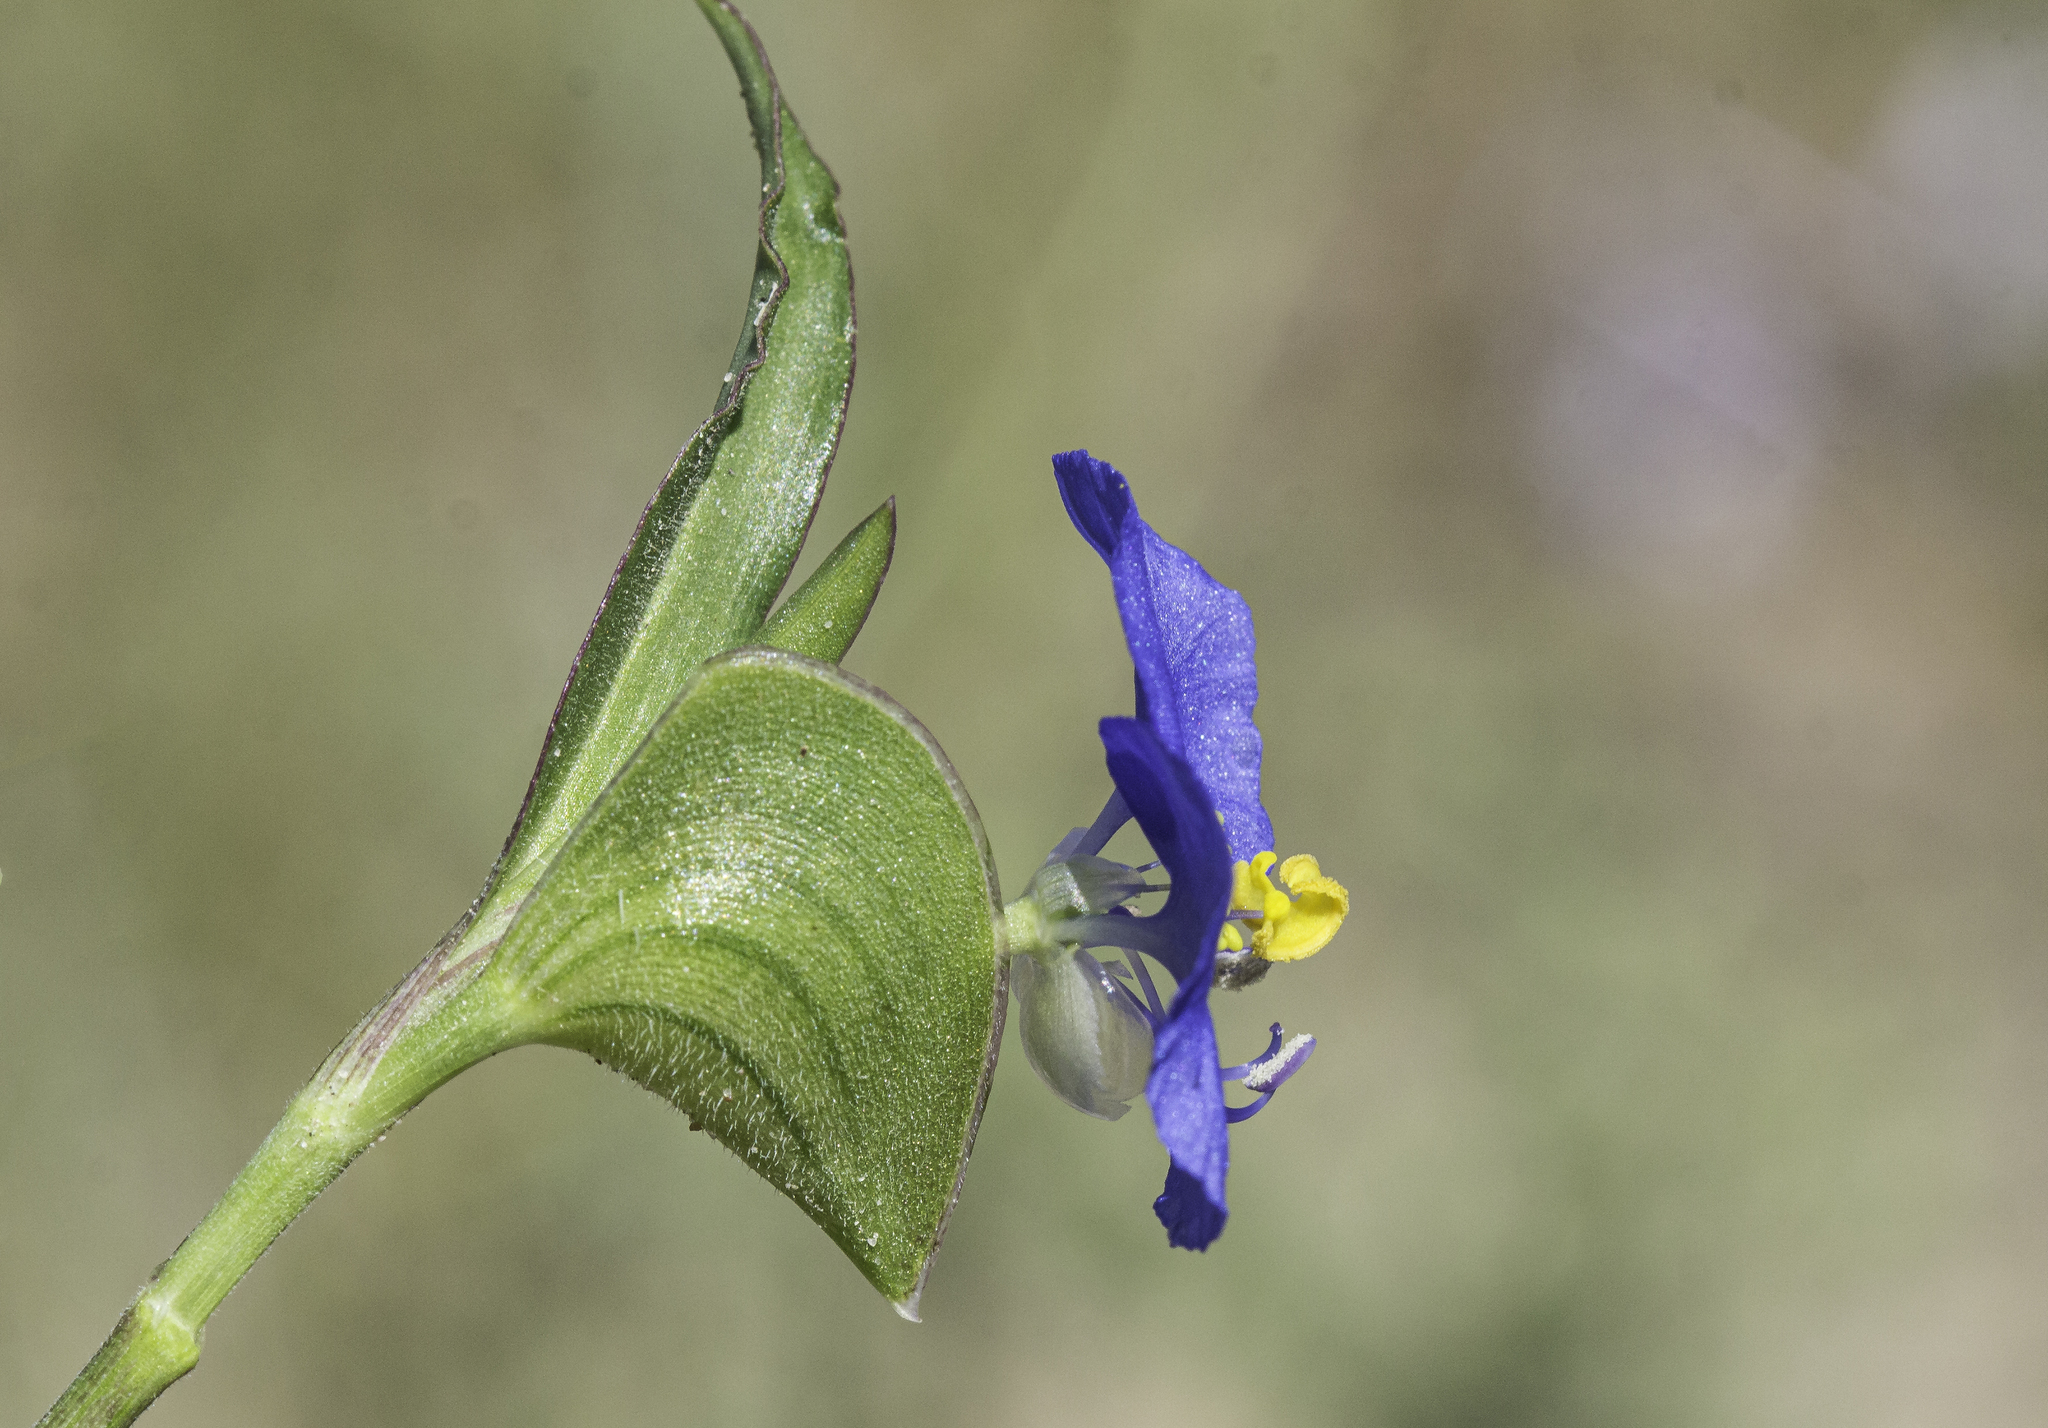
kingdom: Plantae
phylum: Tracheophyta
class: Liliopsida
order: Commelinales
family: Commelinaceae
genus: Commelina
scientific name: Commelina erecta
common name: Blousel blommetjie
